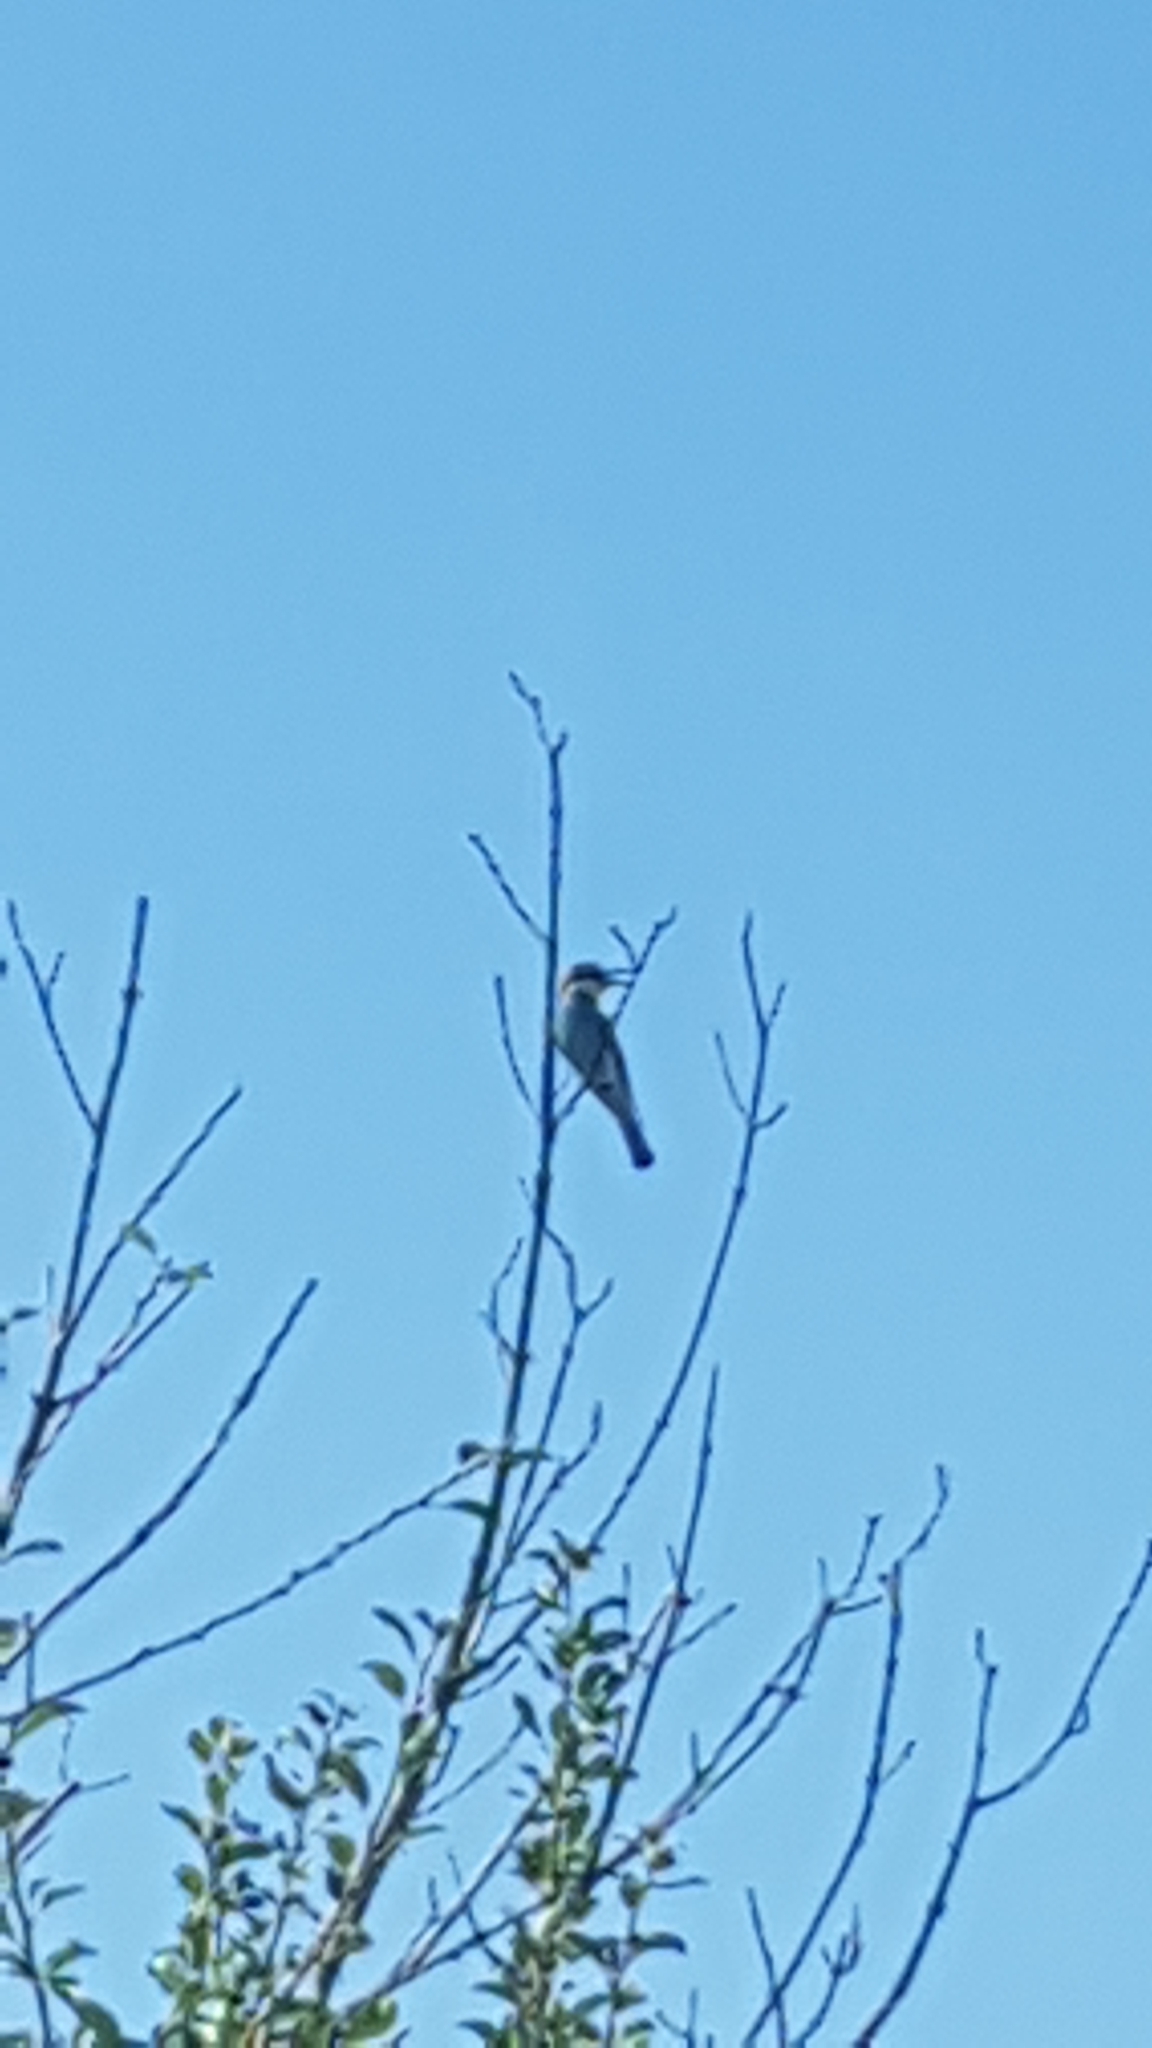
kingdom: Animalia
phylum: Chordata
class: Aves
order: Coraciiformes
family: Meropidae
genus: Merops
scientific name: Merops apiaster
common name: European bee-eater
